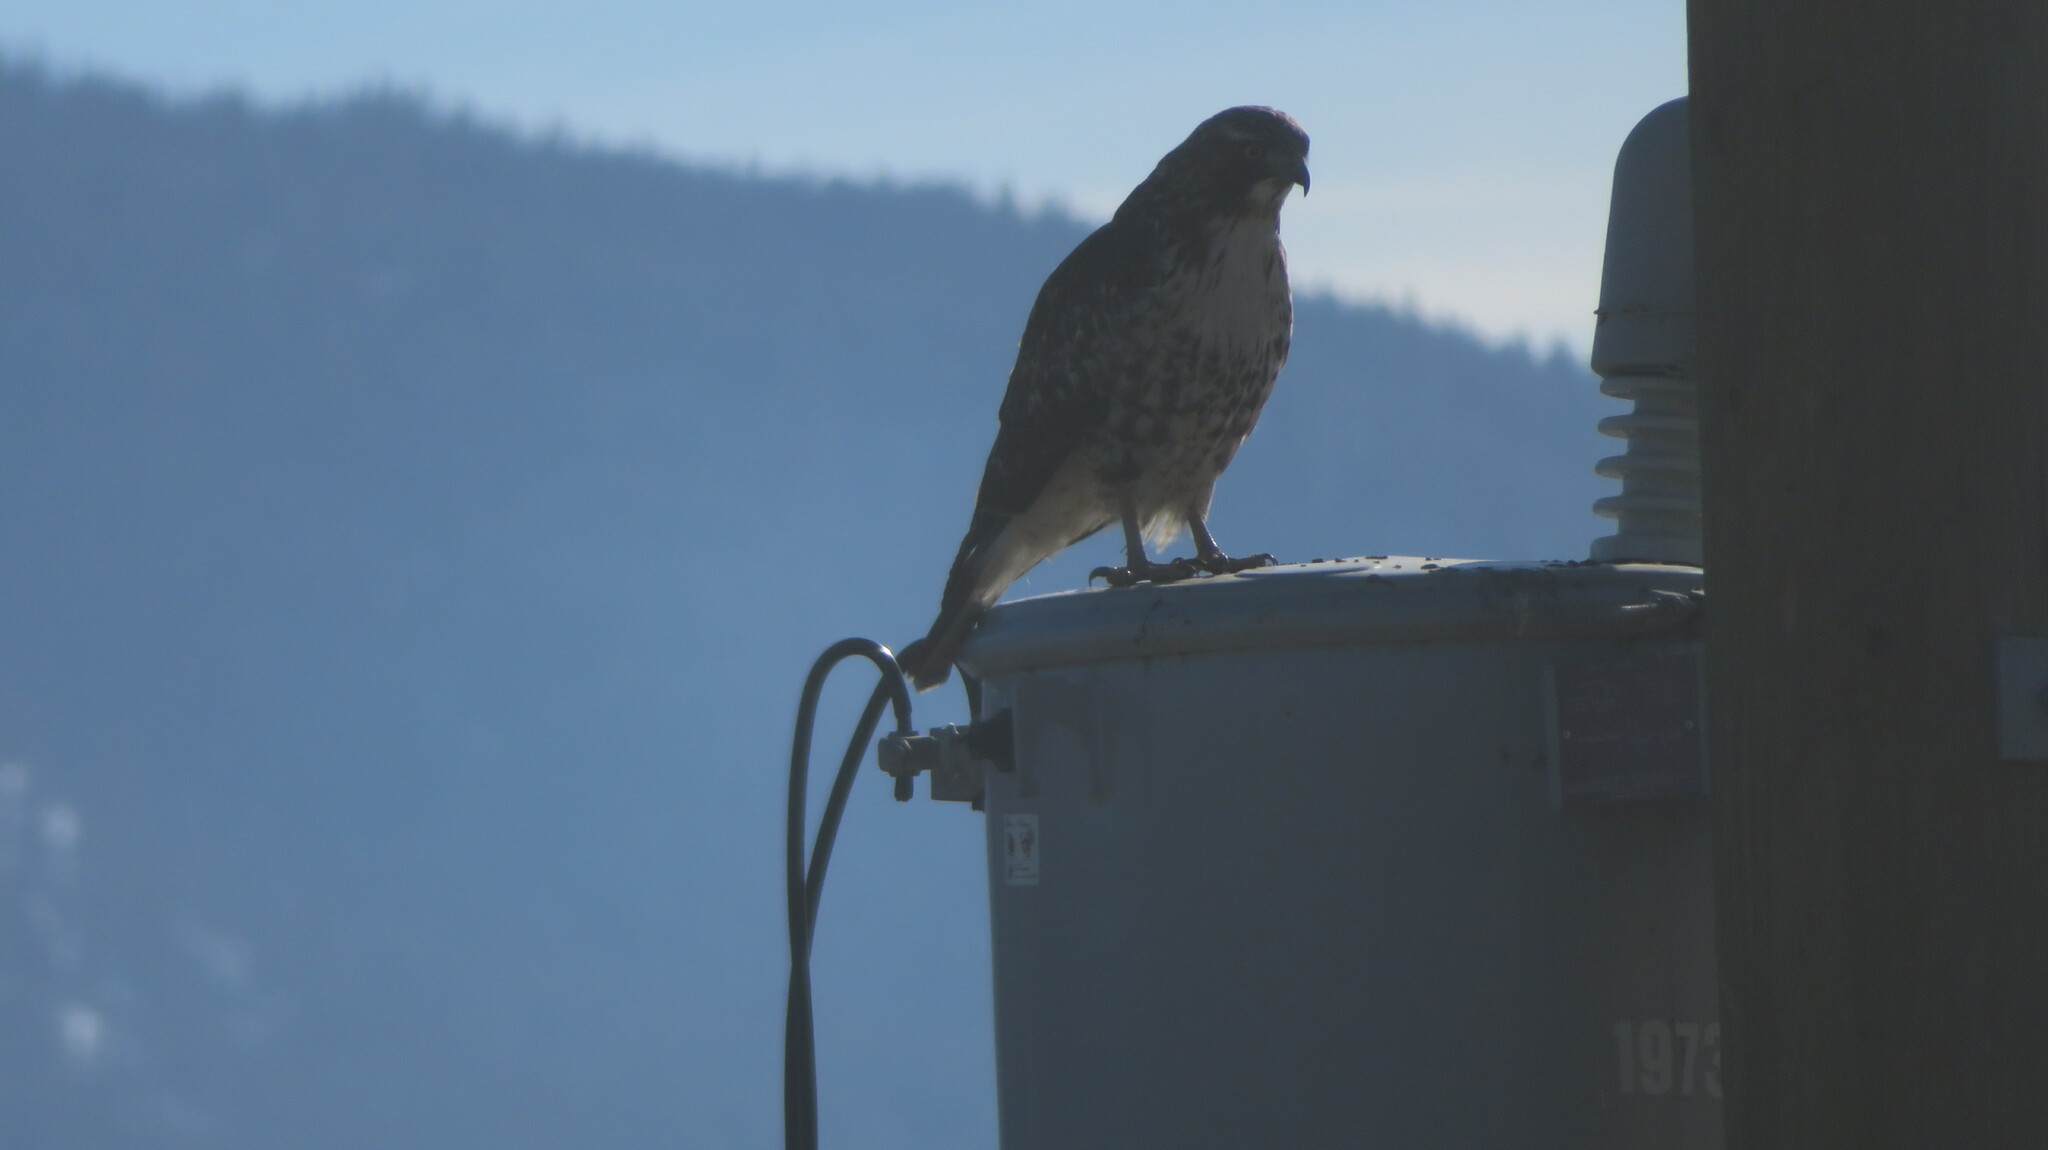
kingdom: Animalia
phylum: Chordata
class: Aves
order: Accipitriformes
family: Accipitridae
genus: Buteo
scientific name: Buteo jamaicensis
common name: Red-tailed hawk
